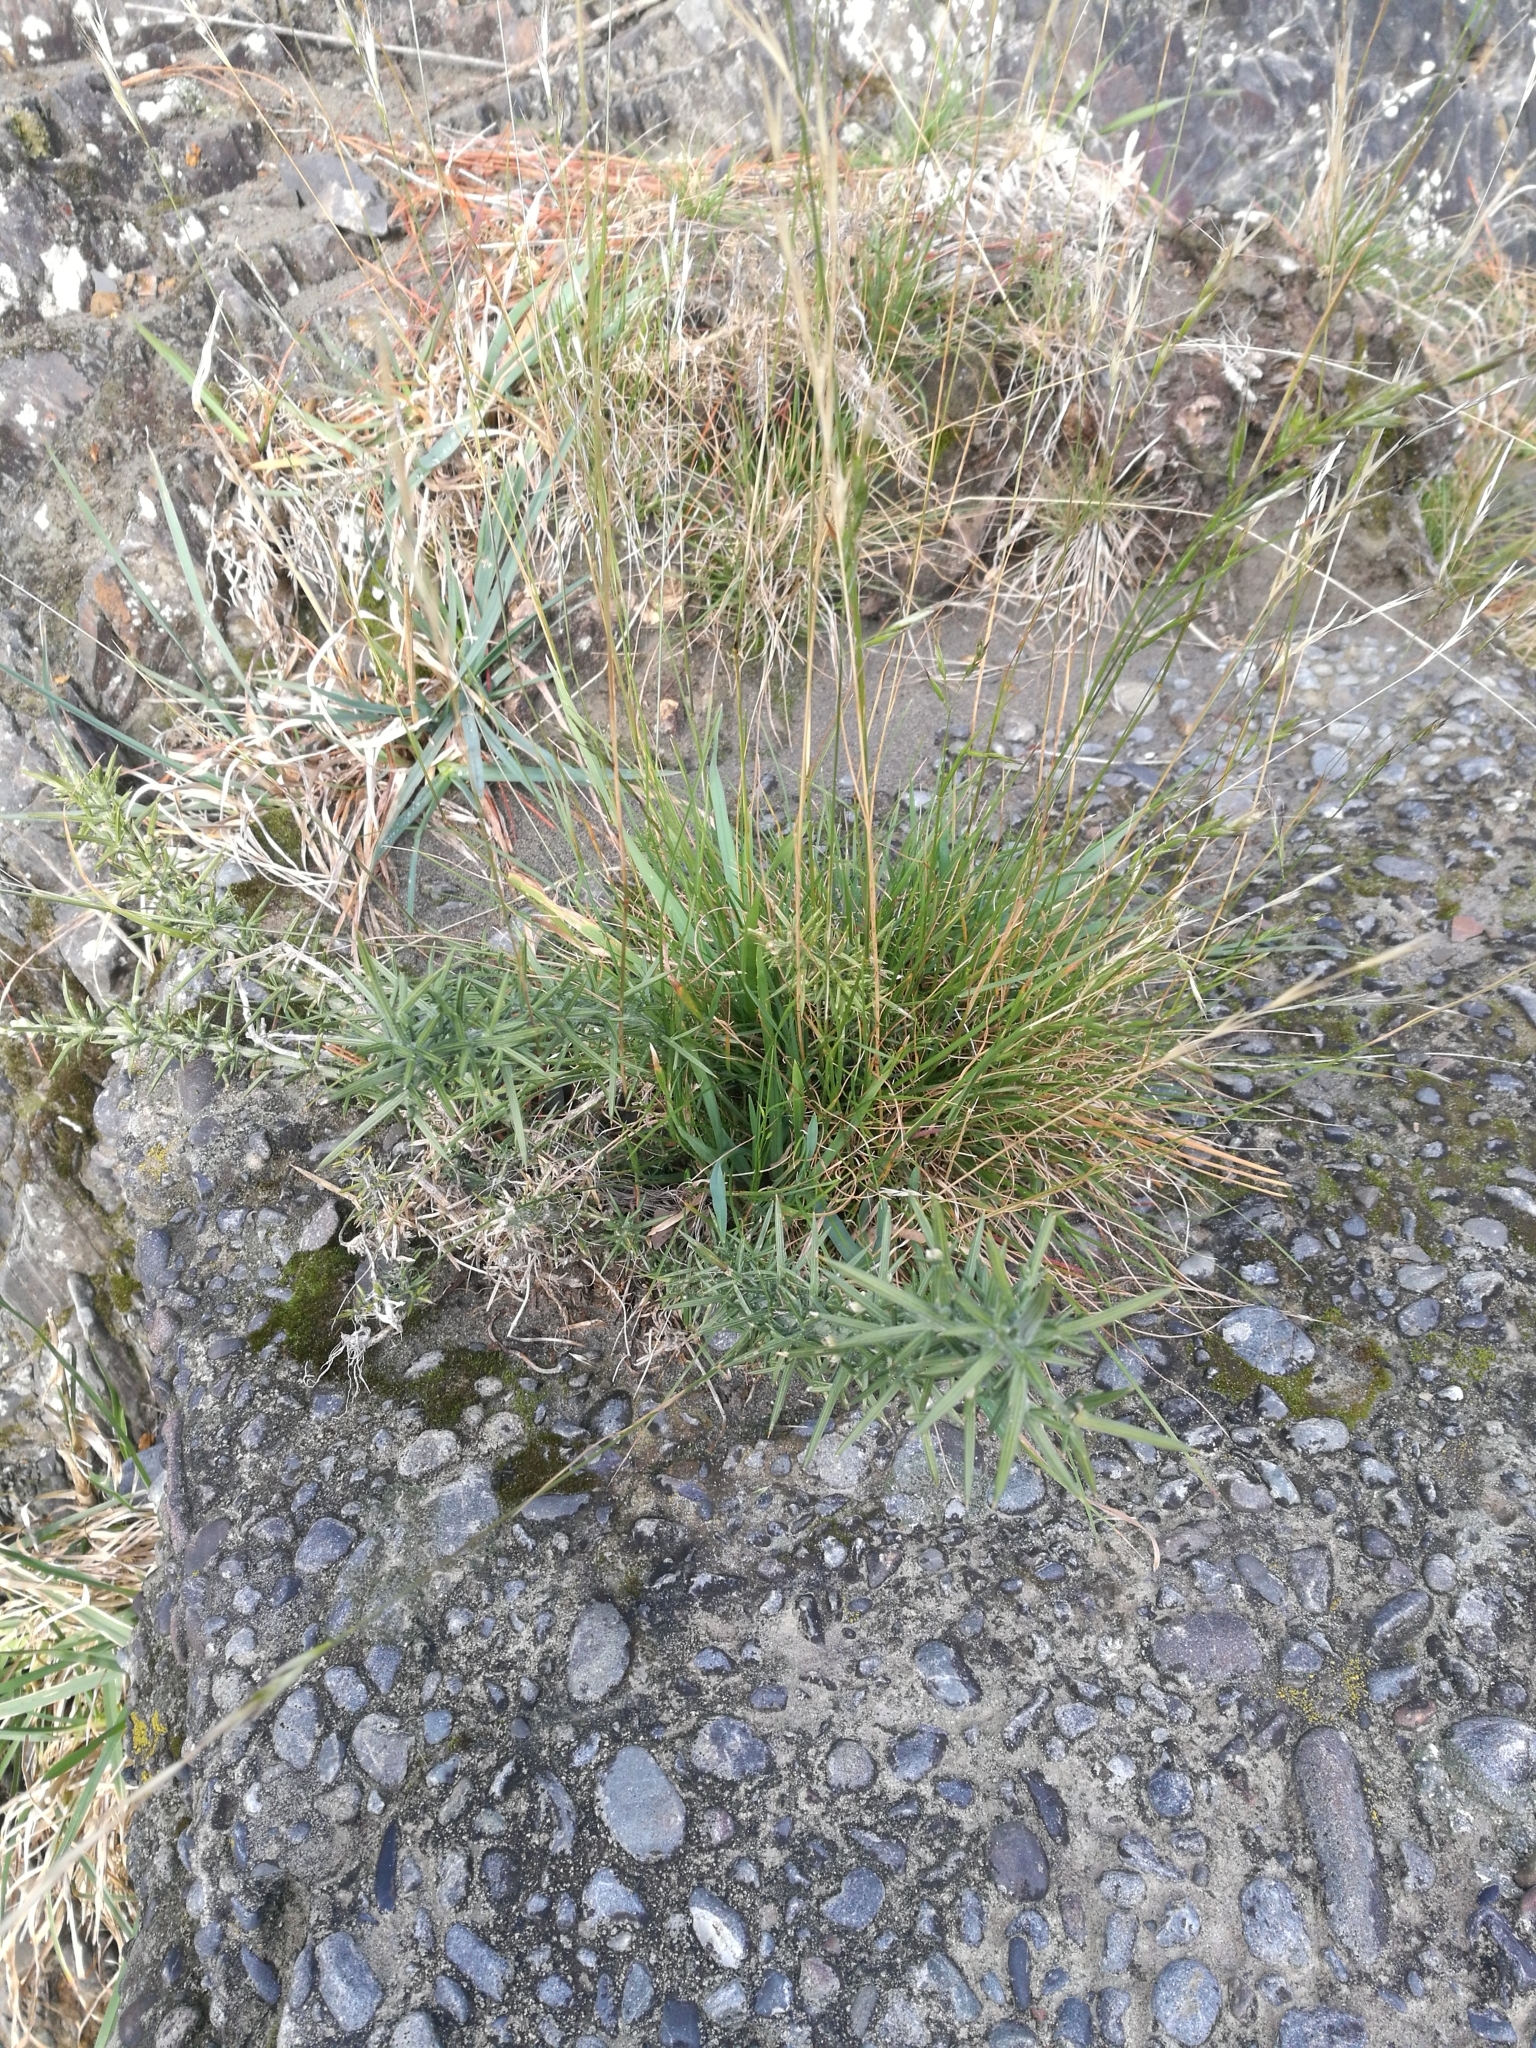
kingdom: Plantae
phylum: Tracheophyta
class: Magnoliopsida
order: Fabales
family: Fabaceae
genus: Ulex
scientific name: Ulex europaeus
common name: Common gorse
